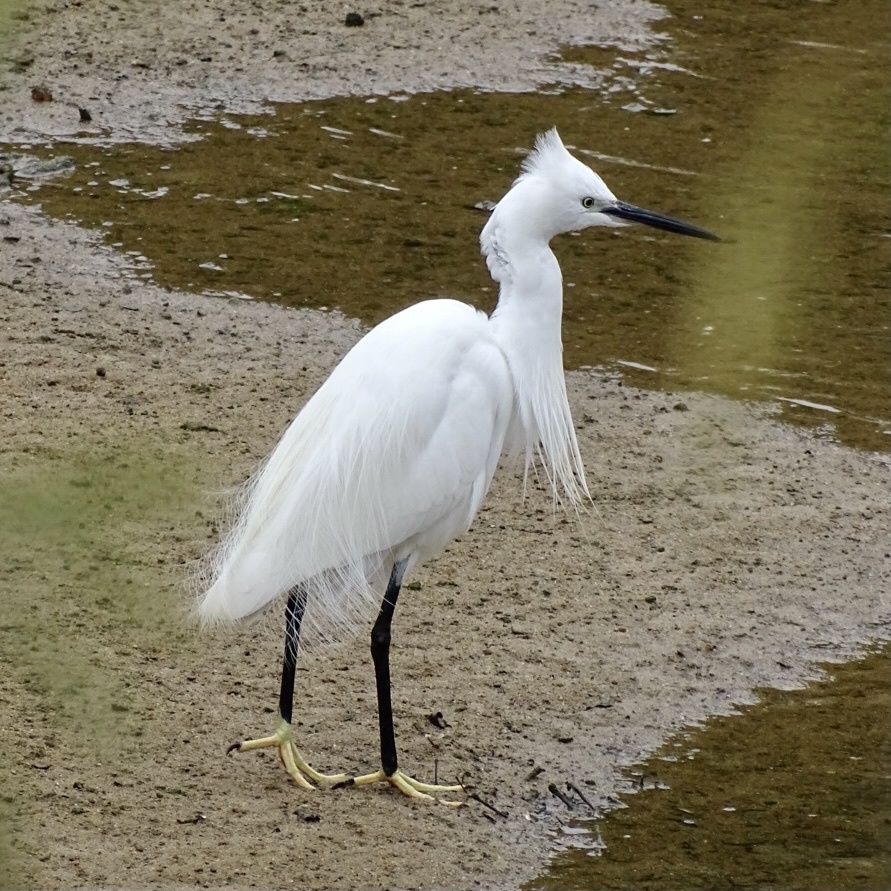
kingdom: Animalia
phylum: Chordata
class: Aves
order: Pelecaniformes
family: Ardeidae
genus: Egretta
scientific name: Egretta garzetta
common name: Little egret
